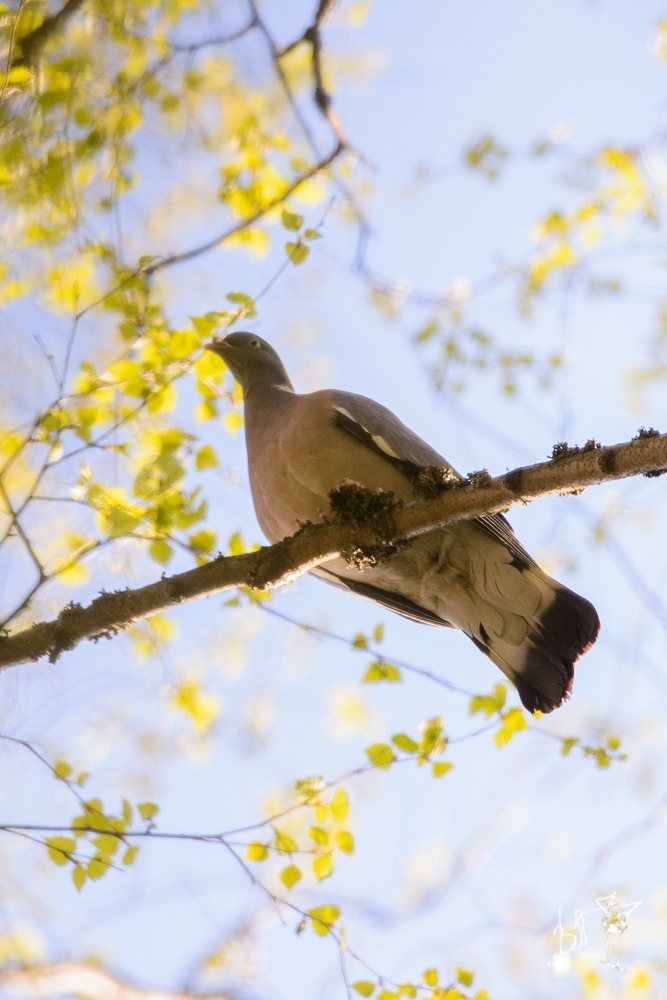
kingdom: Animalia
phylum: Chordata
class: Aves
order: Columbiformes
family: Columbidae
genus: Columba
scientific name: Columba palumbus
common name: Common wood pigeon
